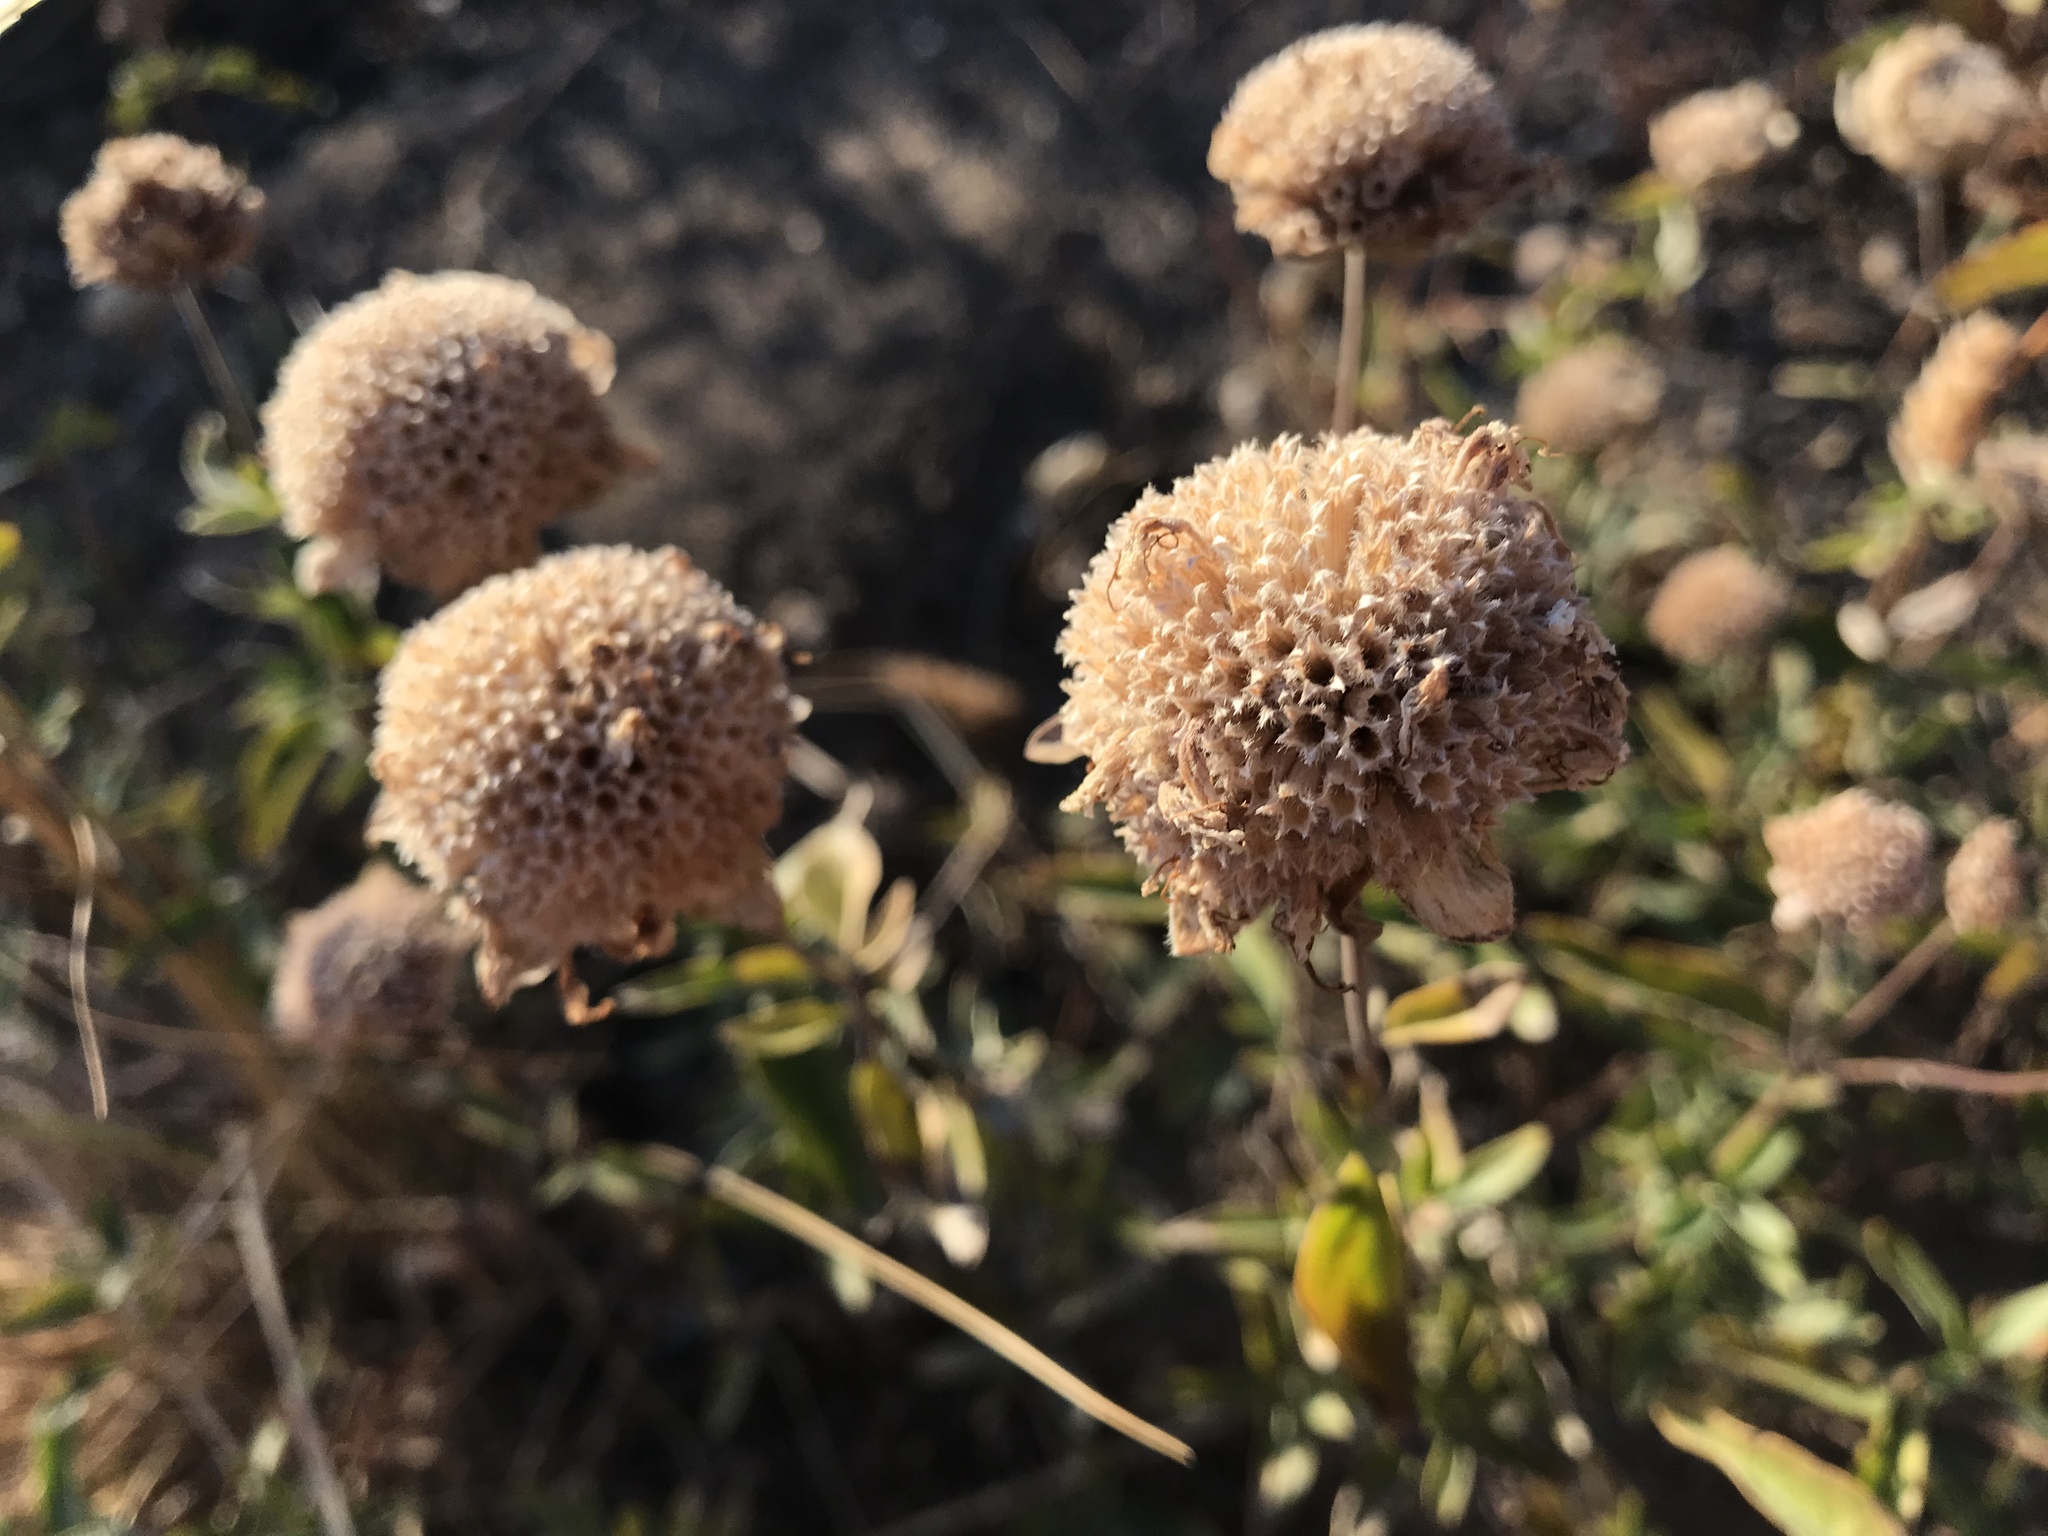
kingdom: Plantae
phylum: Tracheophyta
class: Magnoliopsida
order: Lamiales
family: Lamiaceae
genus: Monardella
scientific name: Monardella odoratissima
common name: Pacific monardella
